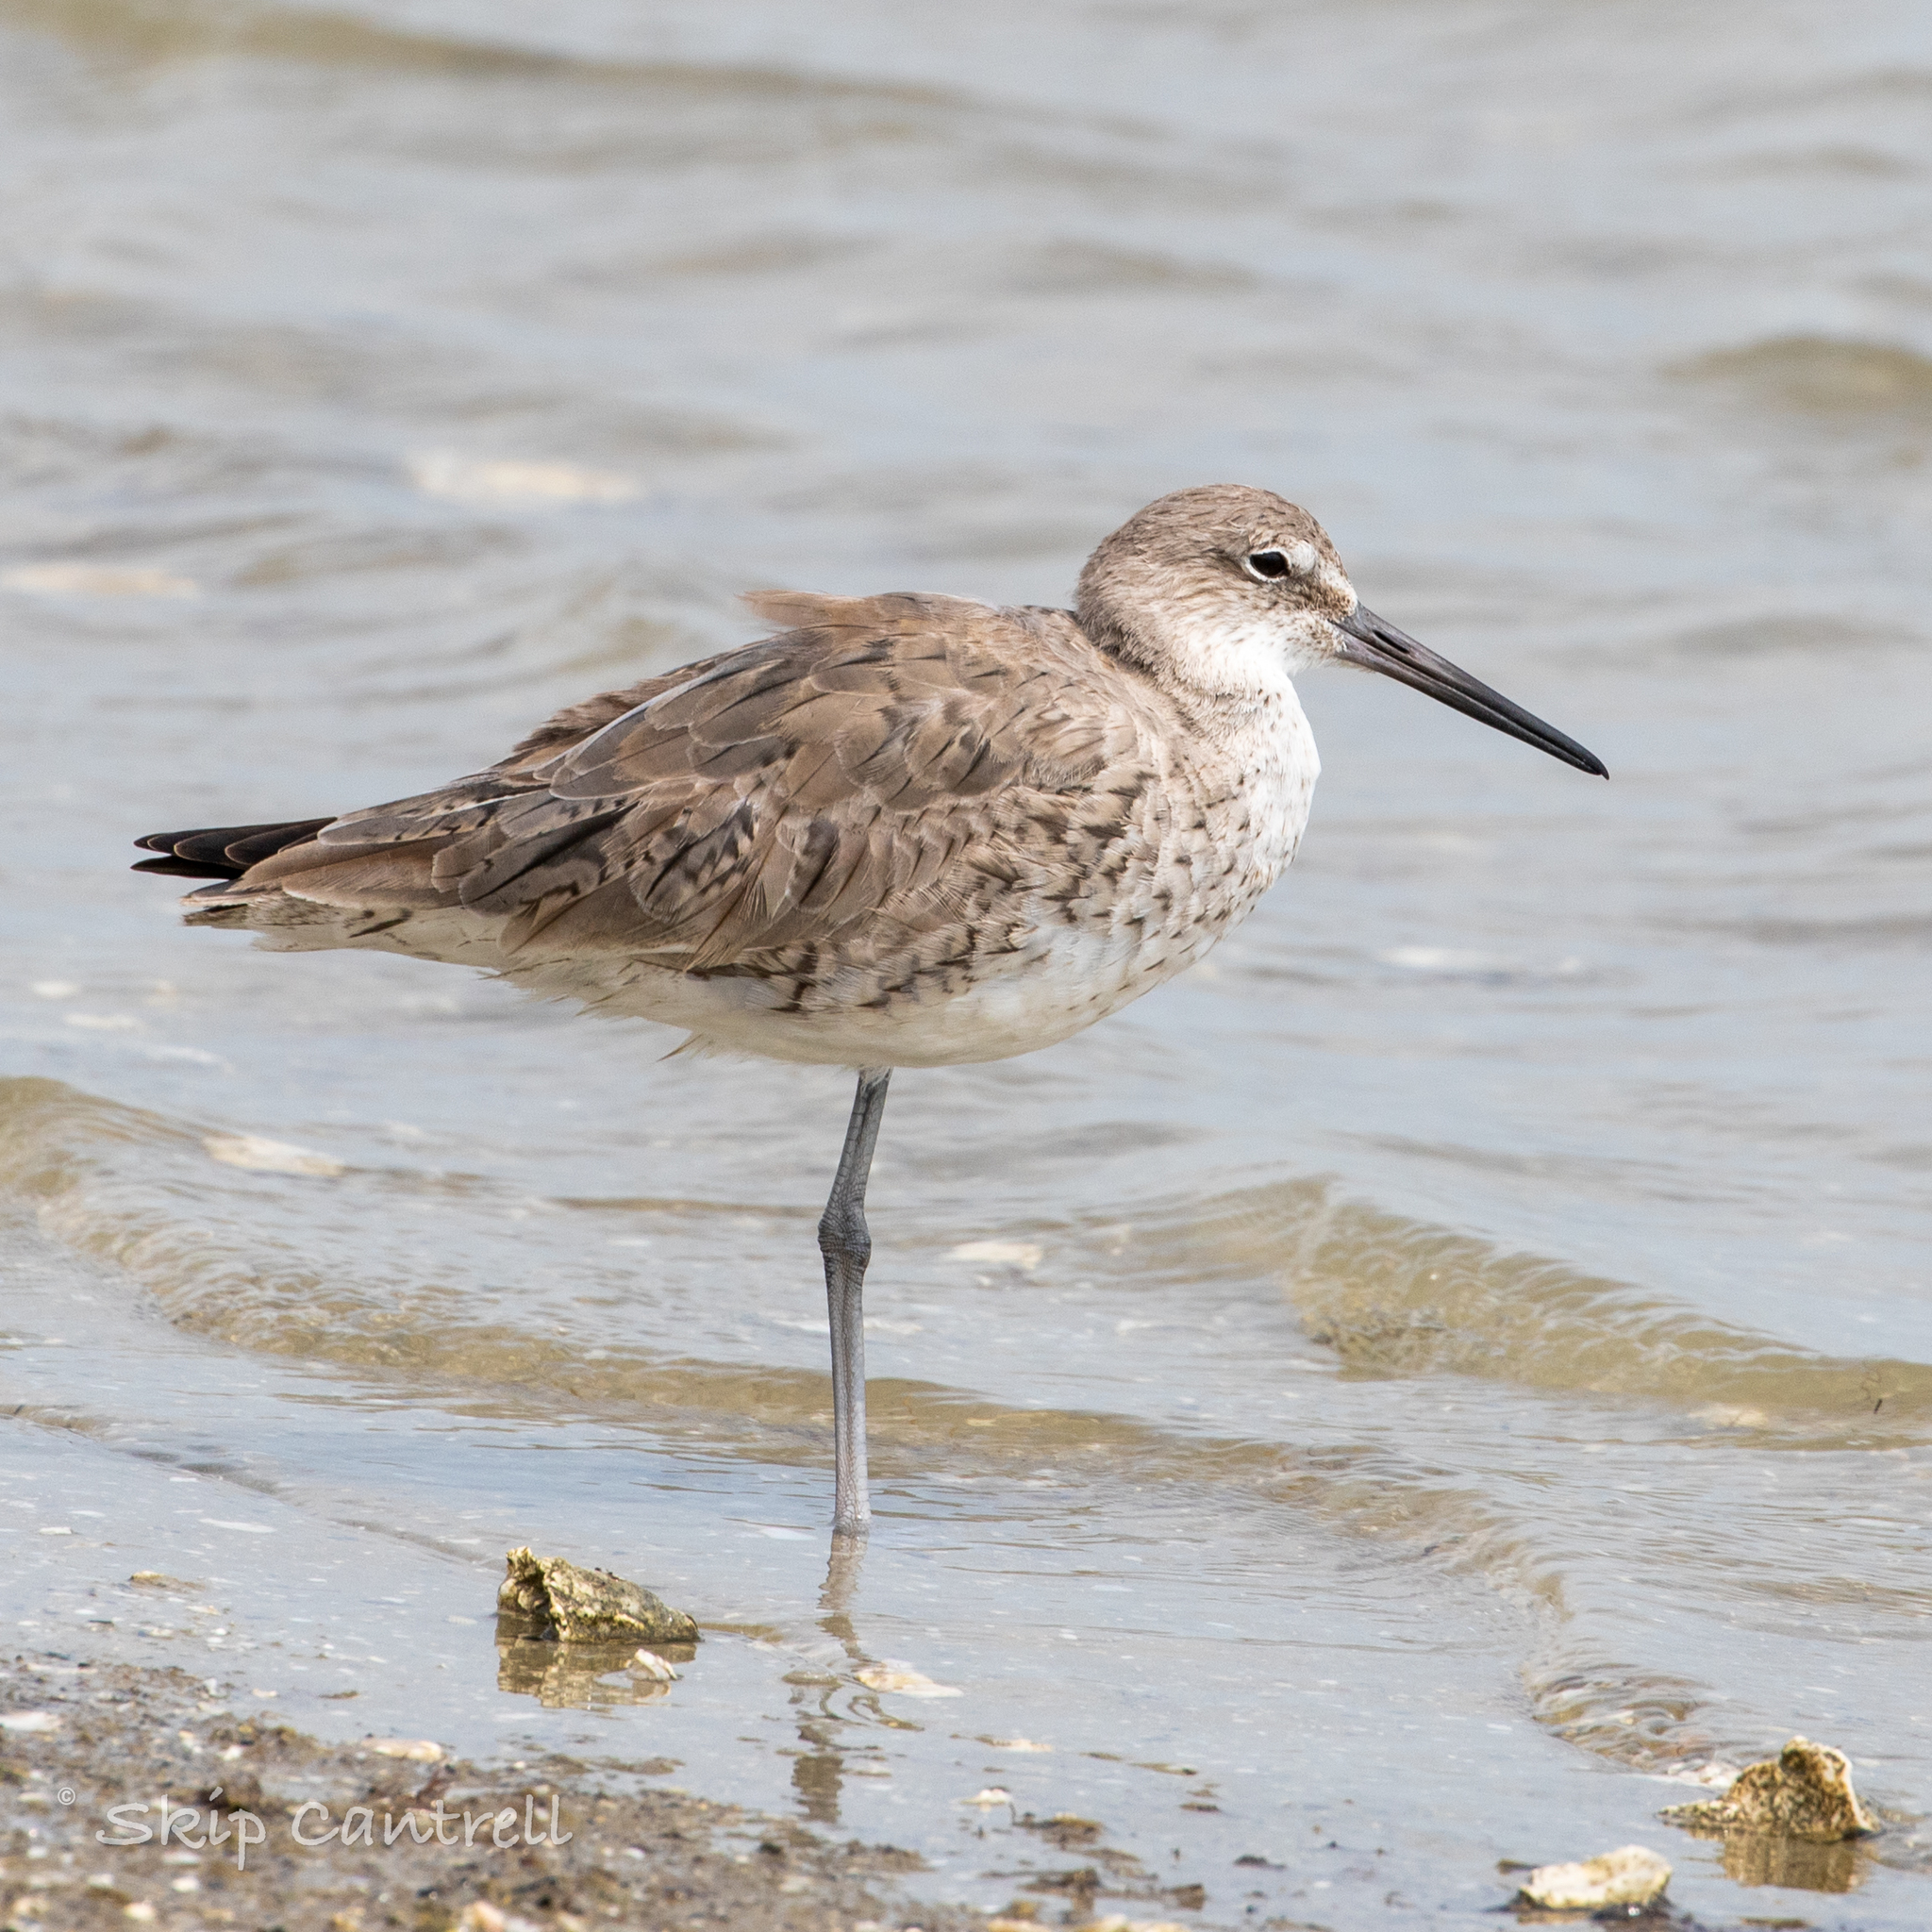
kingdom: Animalia
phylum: Chordata
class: Aves
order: Charadriiformes
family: Scolopacidae
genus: Tringa
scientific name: Tringa semipalmata
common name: Willet
